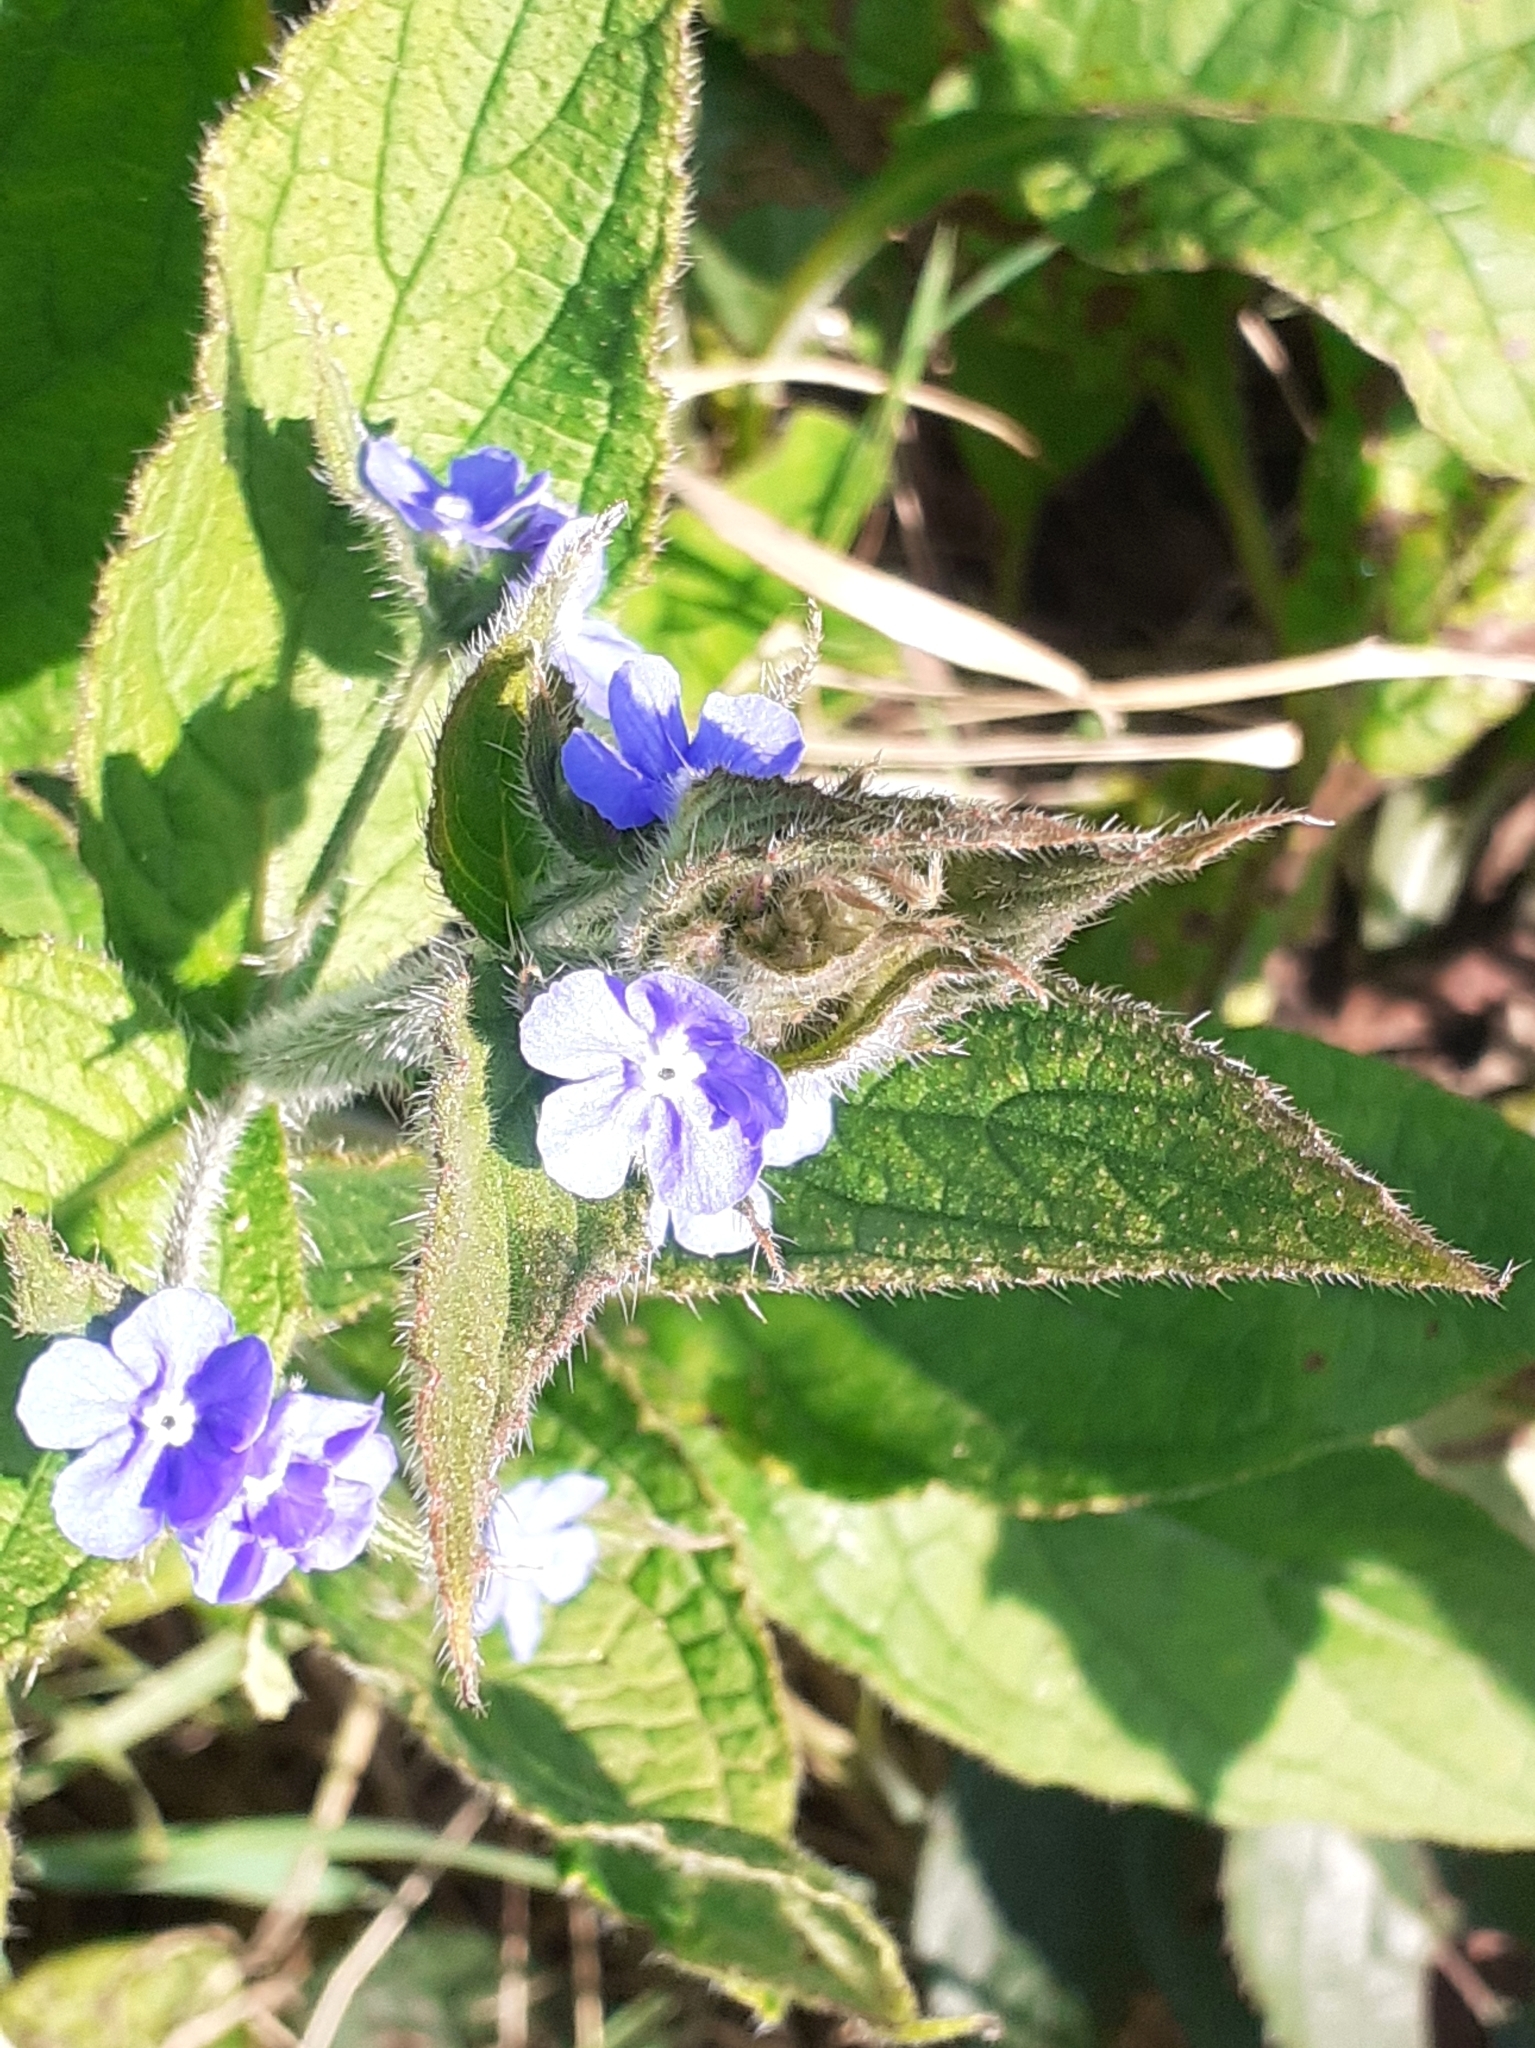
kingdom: Plantae
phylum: Tracheophyta
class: Magnoliopsida
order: Boraginales
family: Boraginaceae
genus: Pentaglottis
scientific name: Pentaglottis sempervirens
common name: Green alkanet
